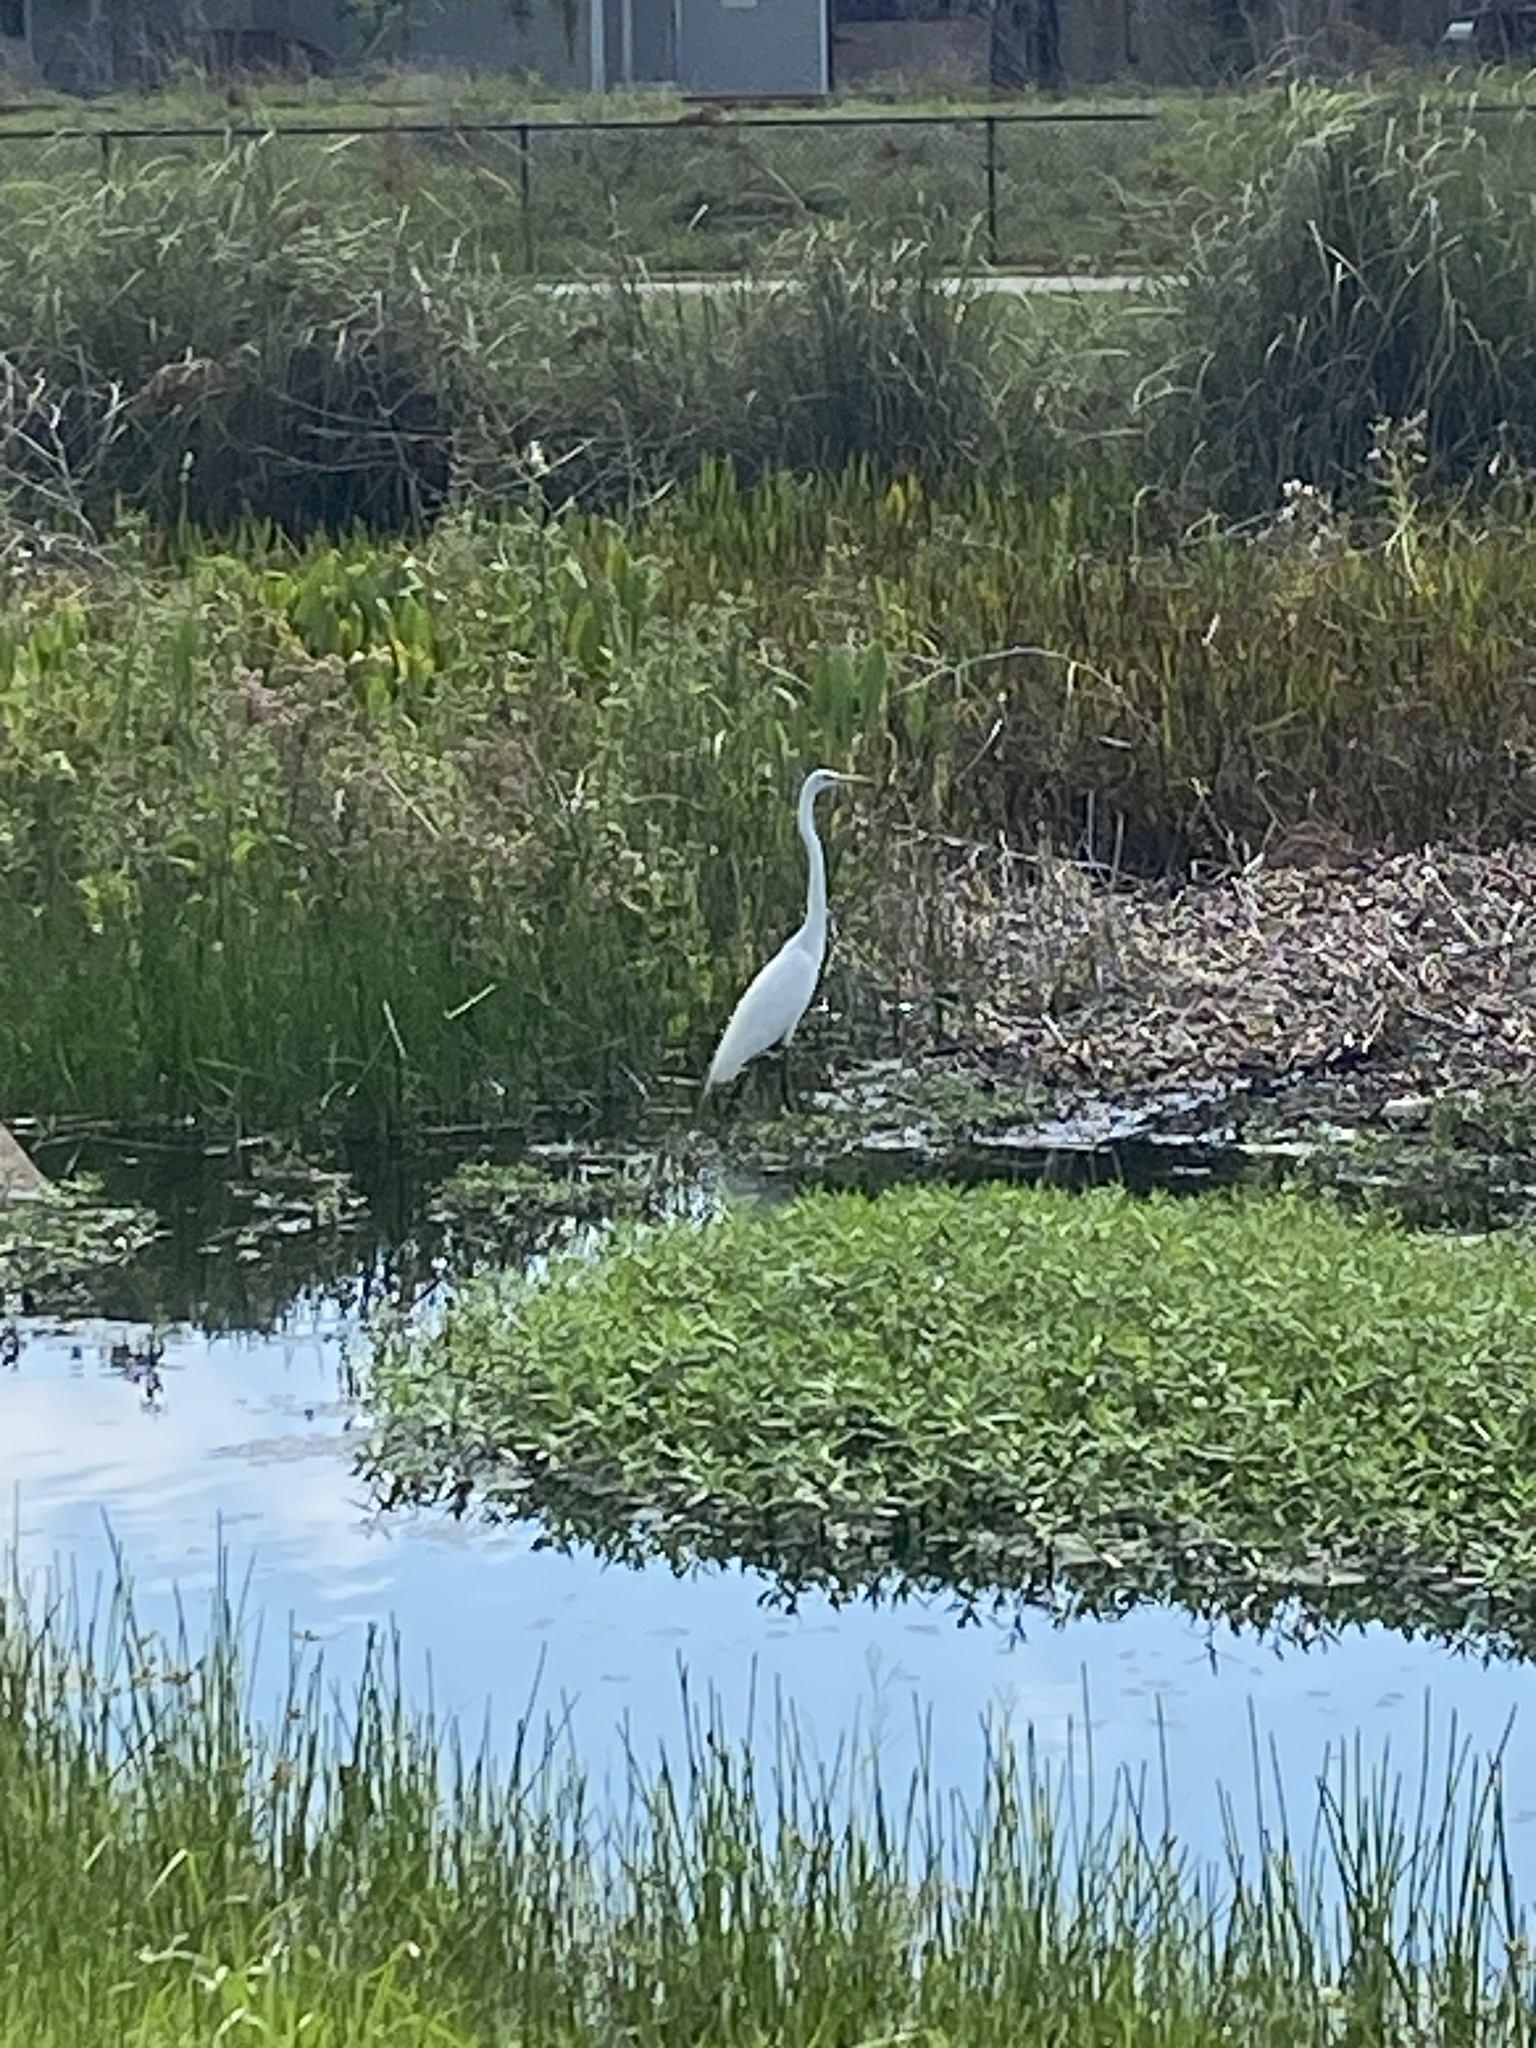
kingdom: Animalia
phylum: Chordata
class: Aves
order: Pelecaniformes
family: Ardeidae
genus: Ardea
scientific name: Ardea alba
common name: Great egret
